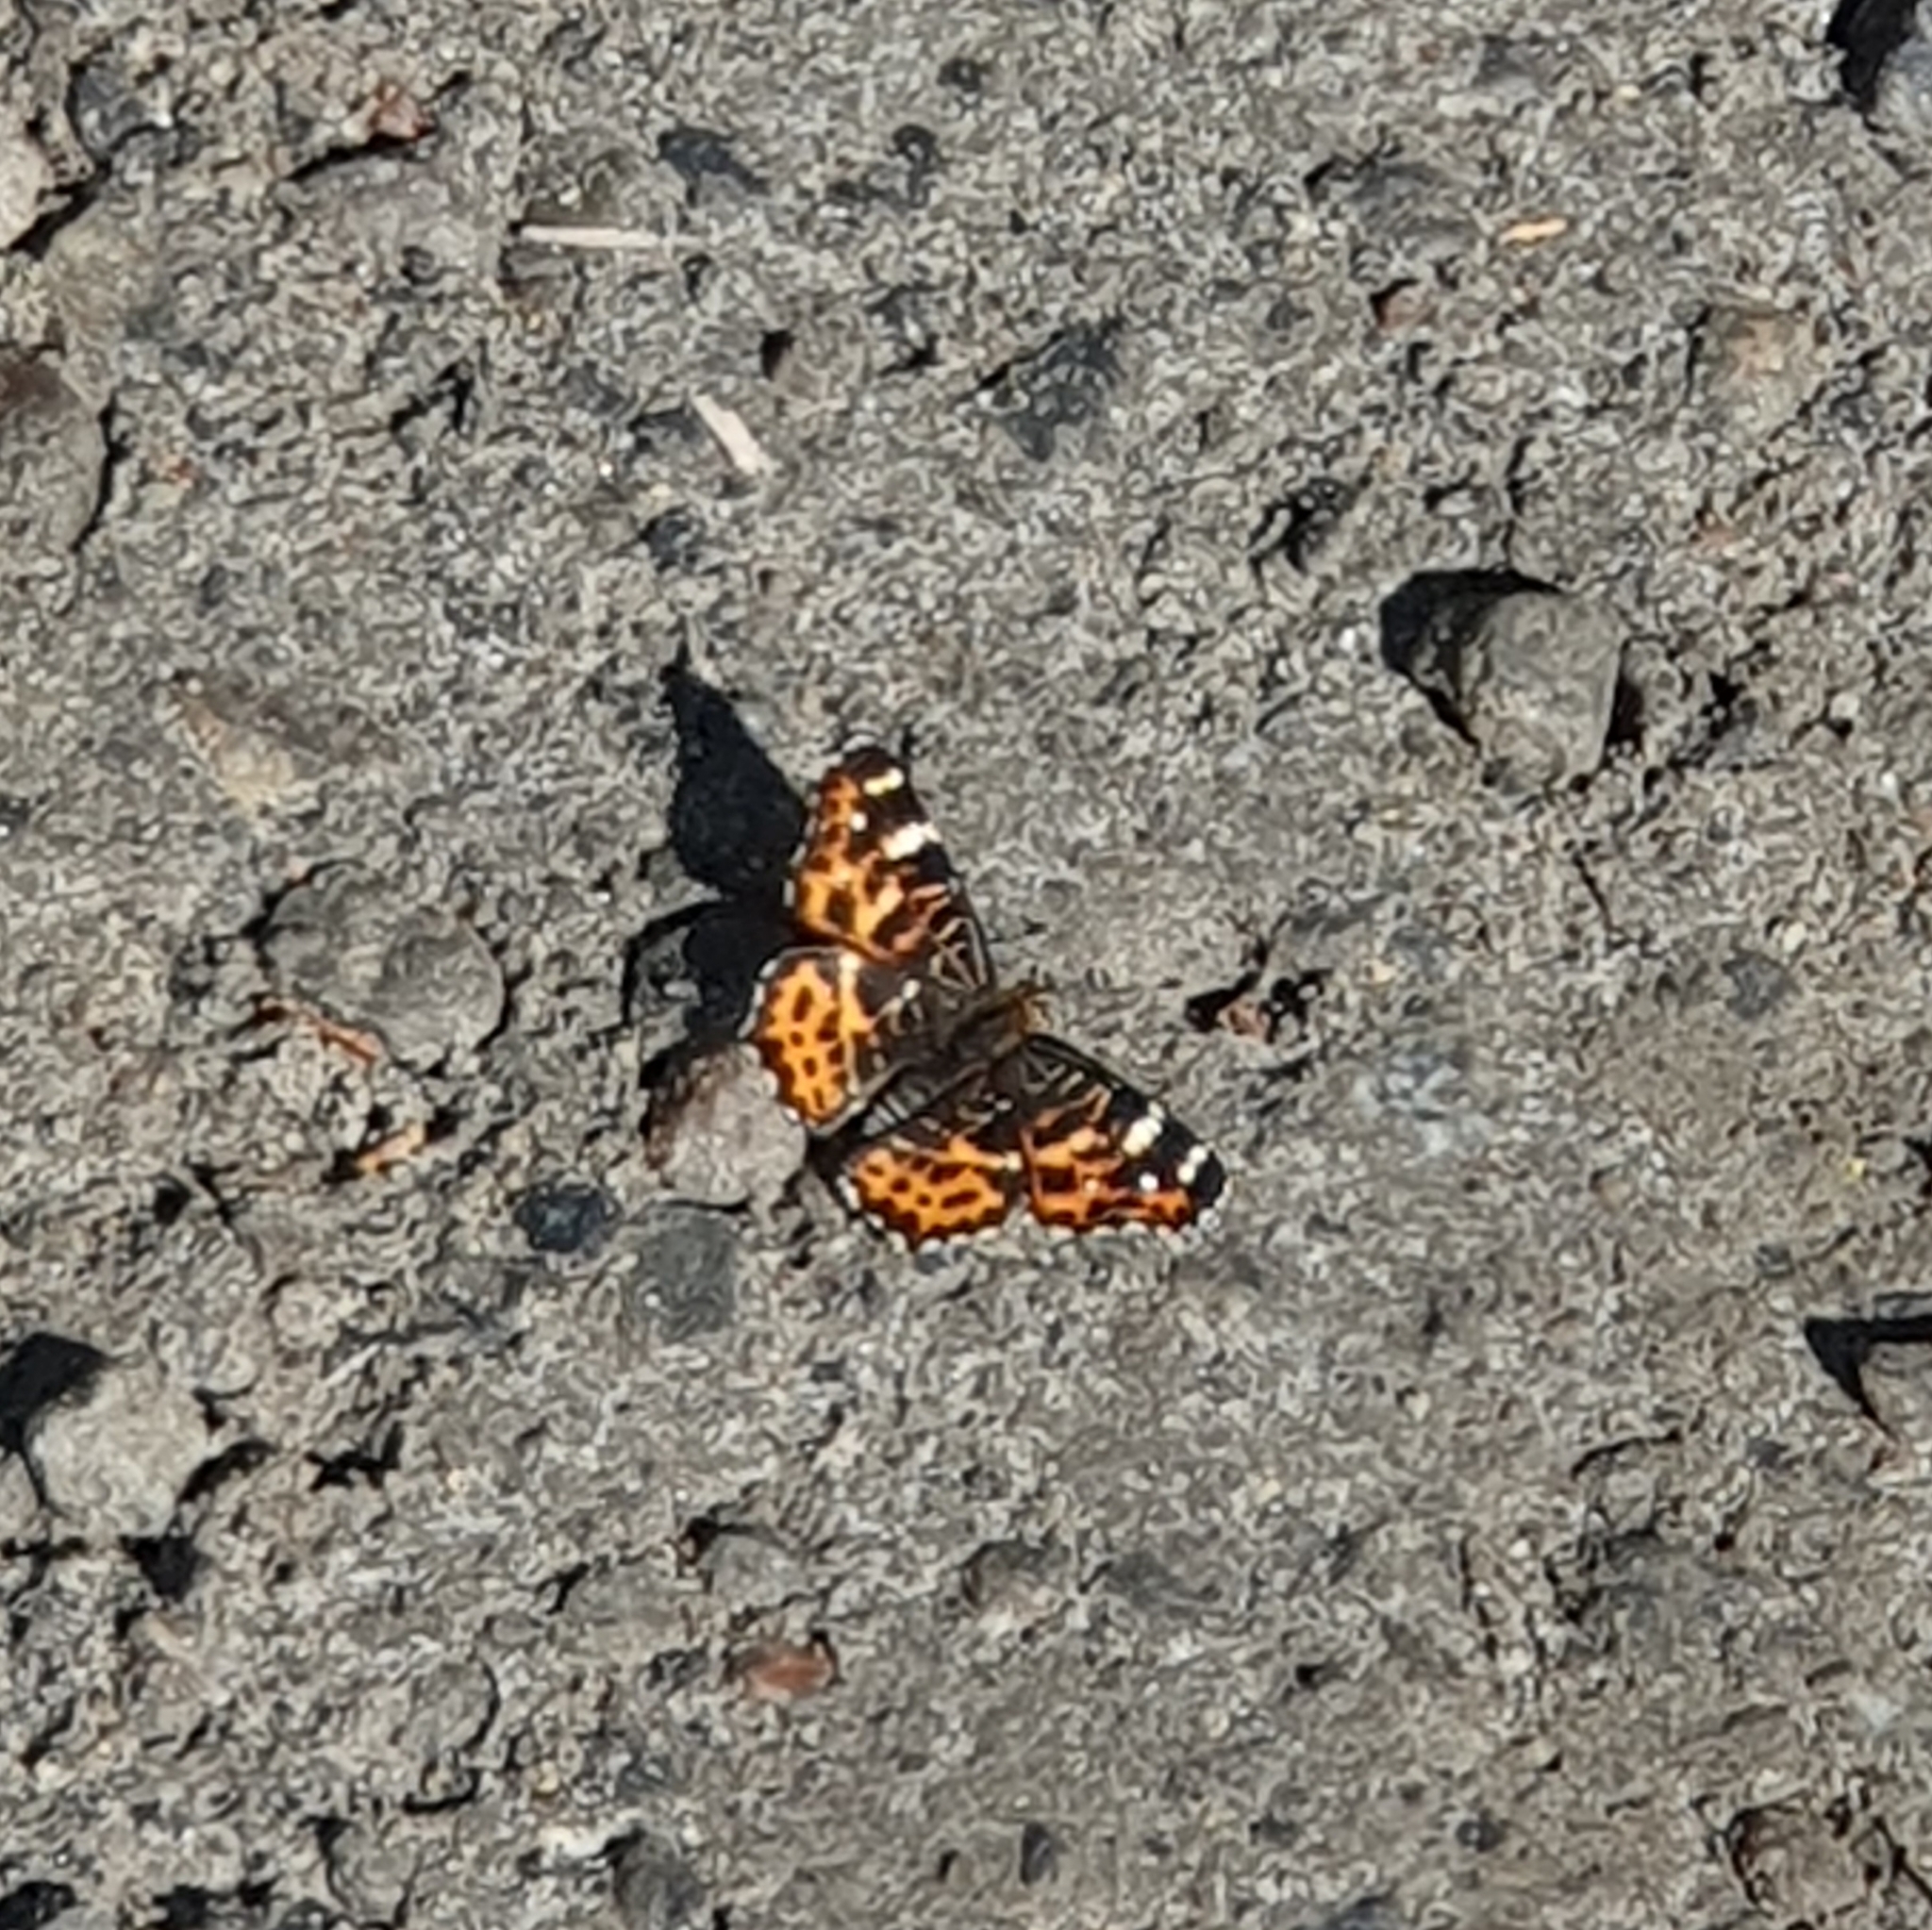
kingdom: Animalia
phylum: Arthropoda
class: Insecta
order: Lepidoptera
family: Nymphalidae
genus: Araschnia
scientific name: Araschnia levana
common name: Map butterfly
